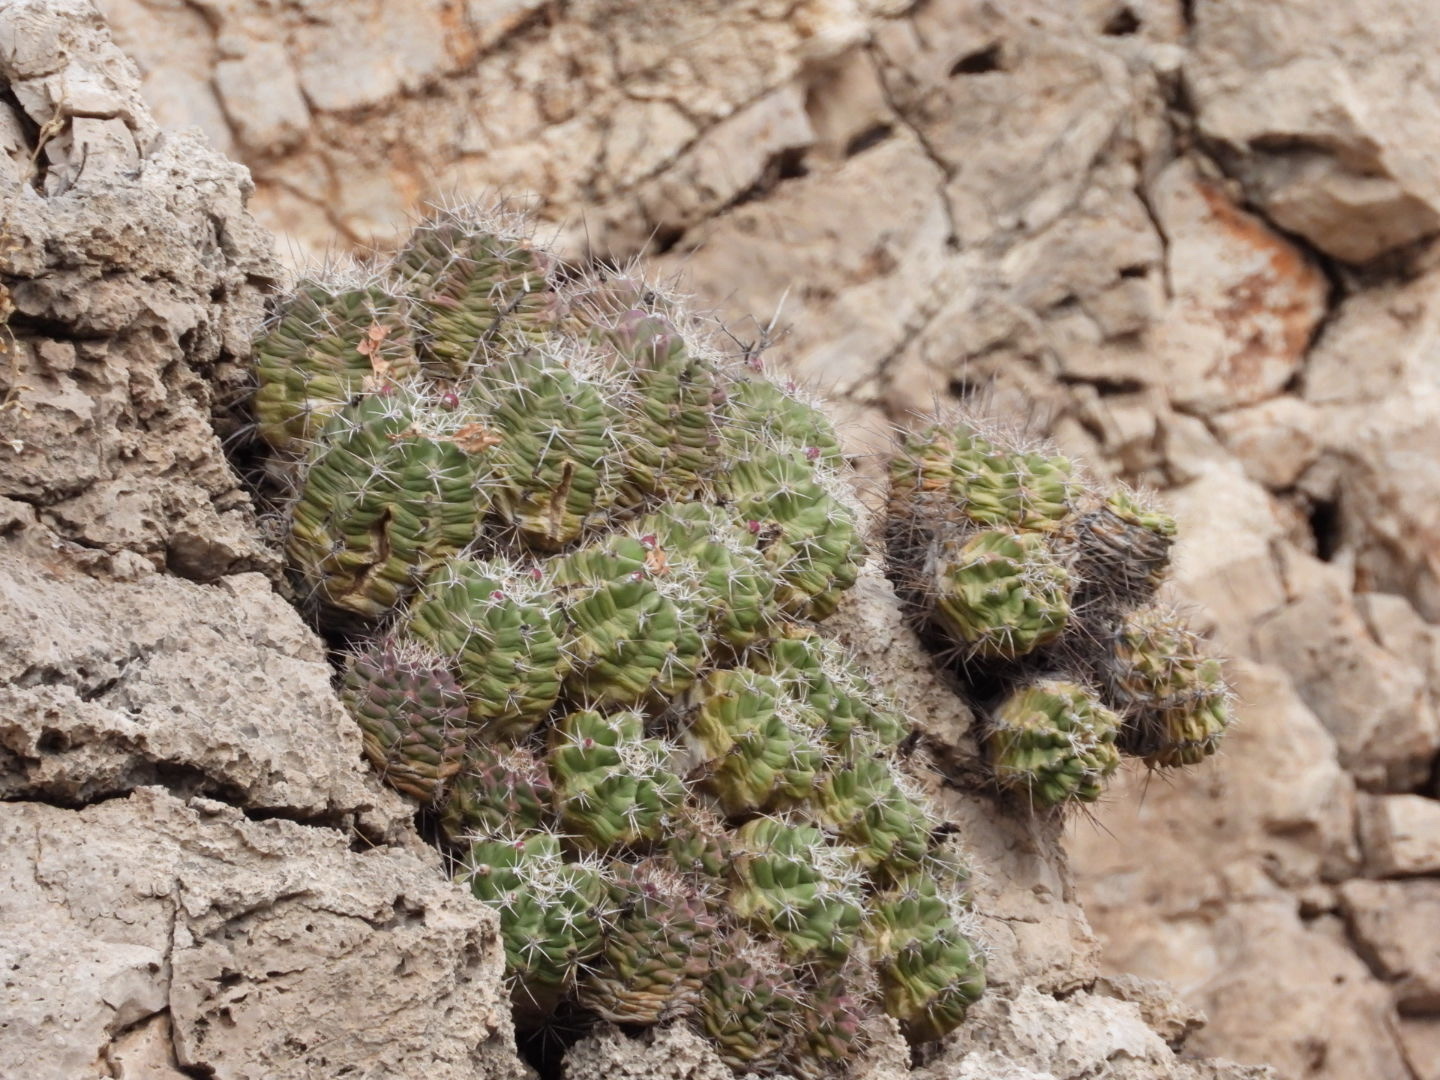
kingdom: Plantae
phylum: Tracheophyta
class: Magnoliopsida
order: Caryophyllales
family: Cactaceae
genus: Echinocereus
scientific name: Echinocereus coccineus
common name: Scarlet hedgehog cactus
